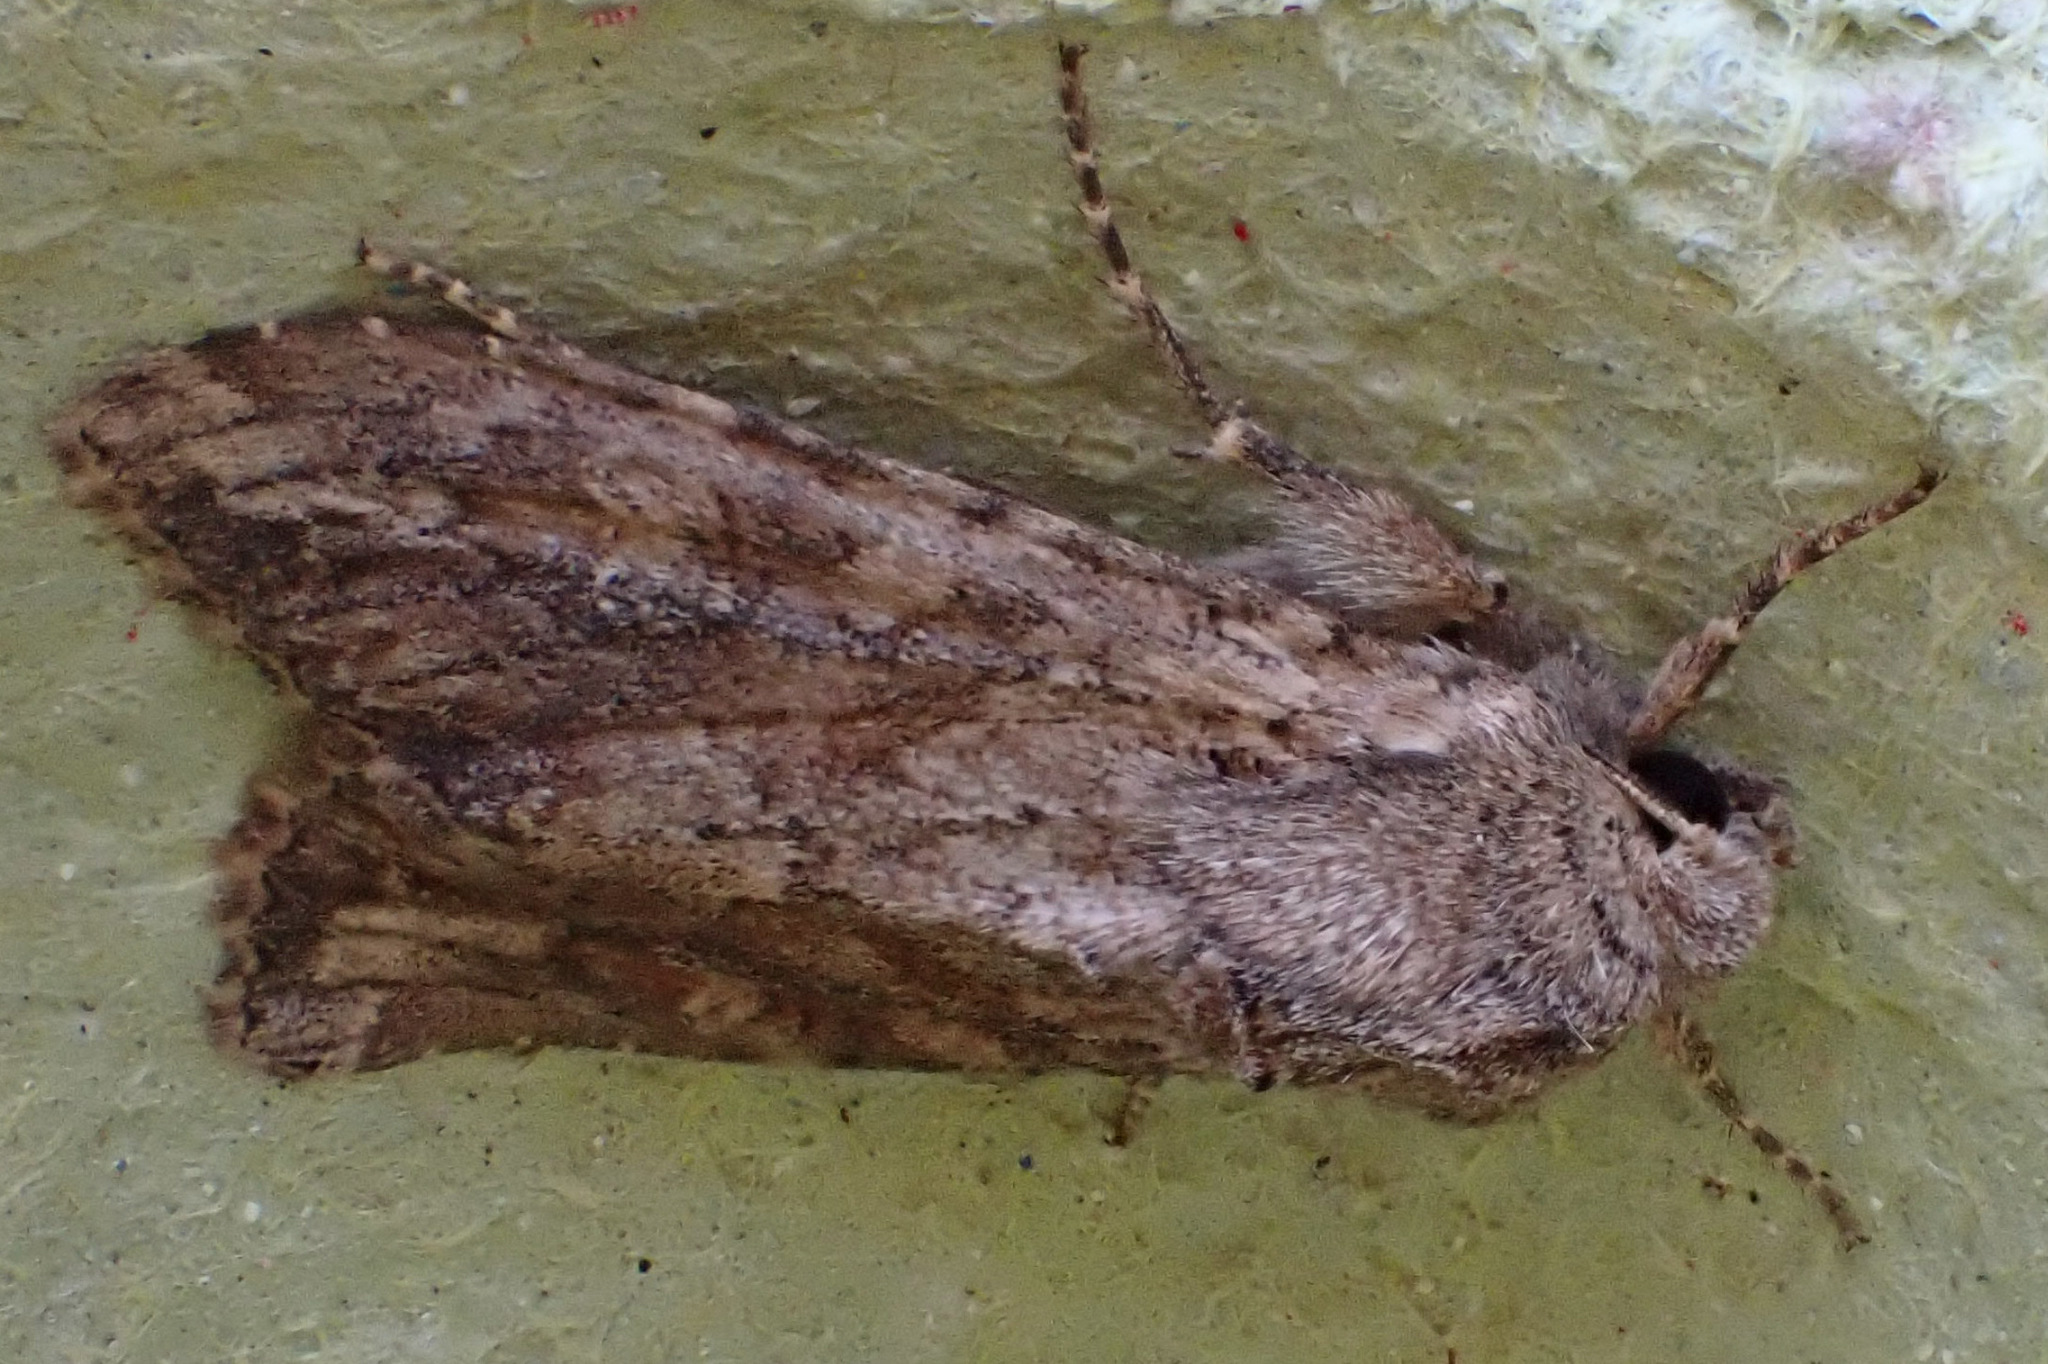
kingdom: Animalia
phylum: Arthropoda
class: Insecta
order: Lepidoptera
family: Noctuidae
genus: Apamea
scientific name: Apamea anceps
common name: Large nutmeg
